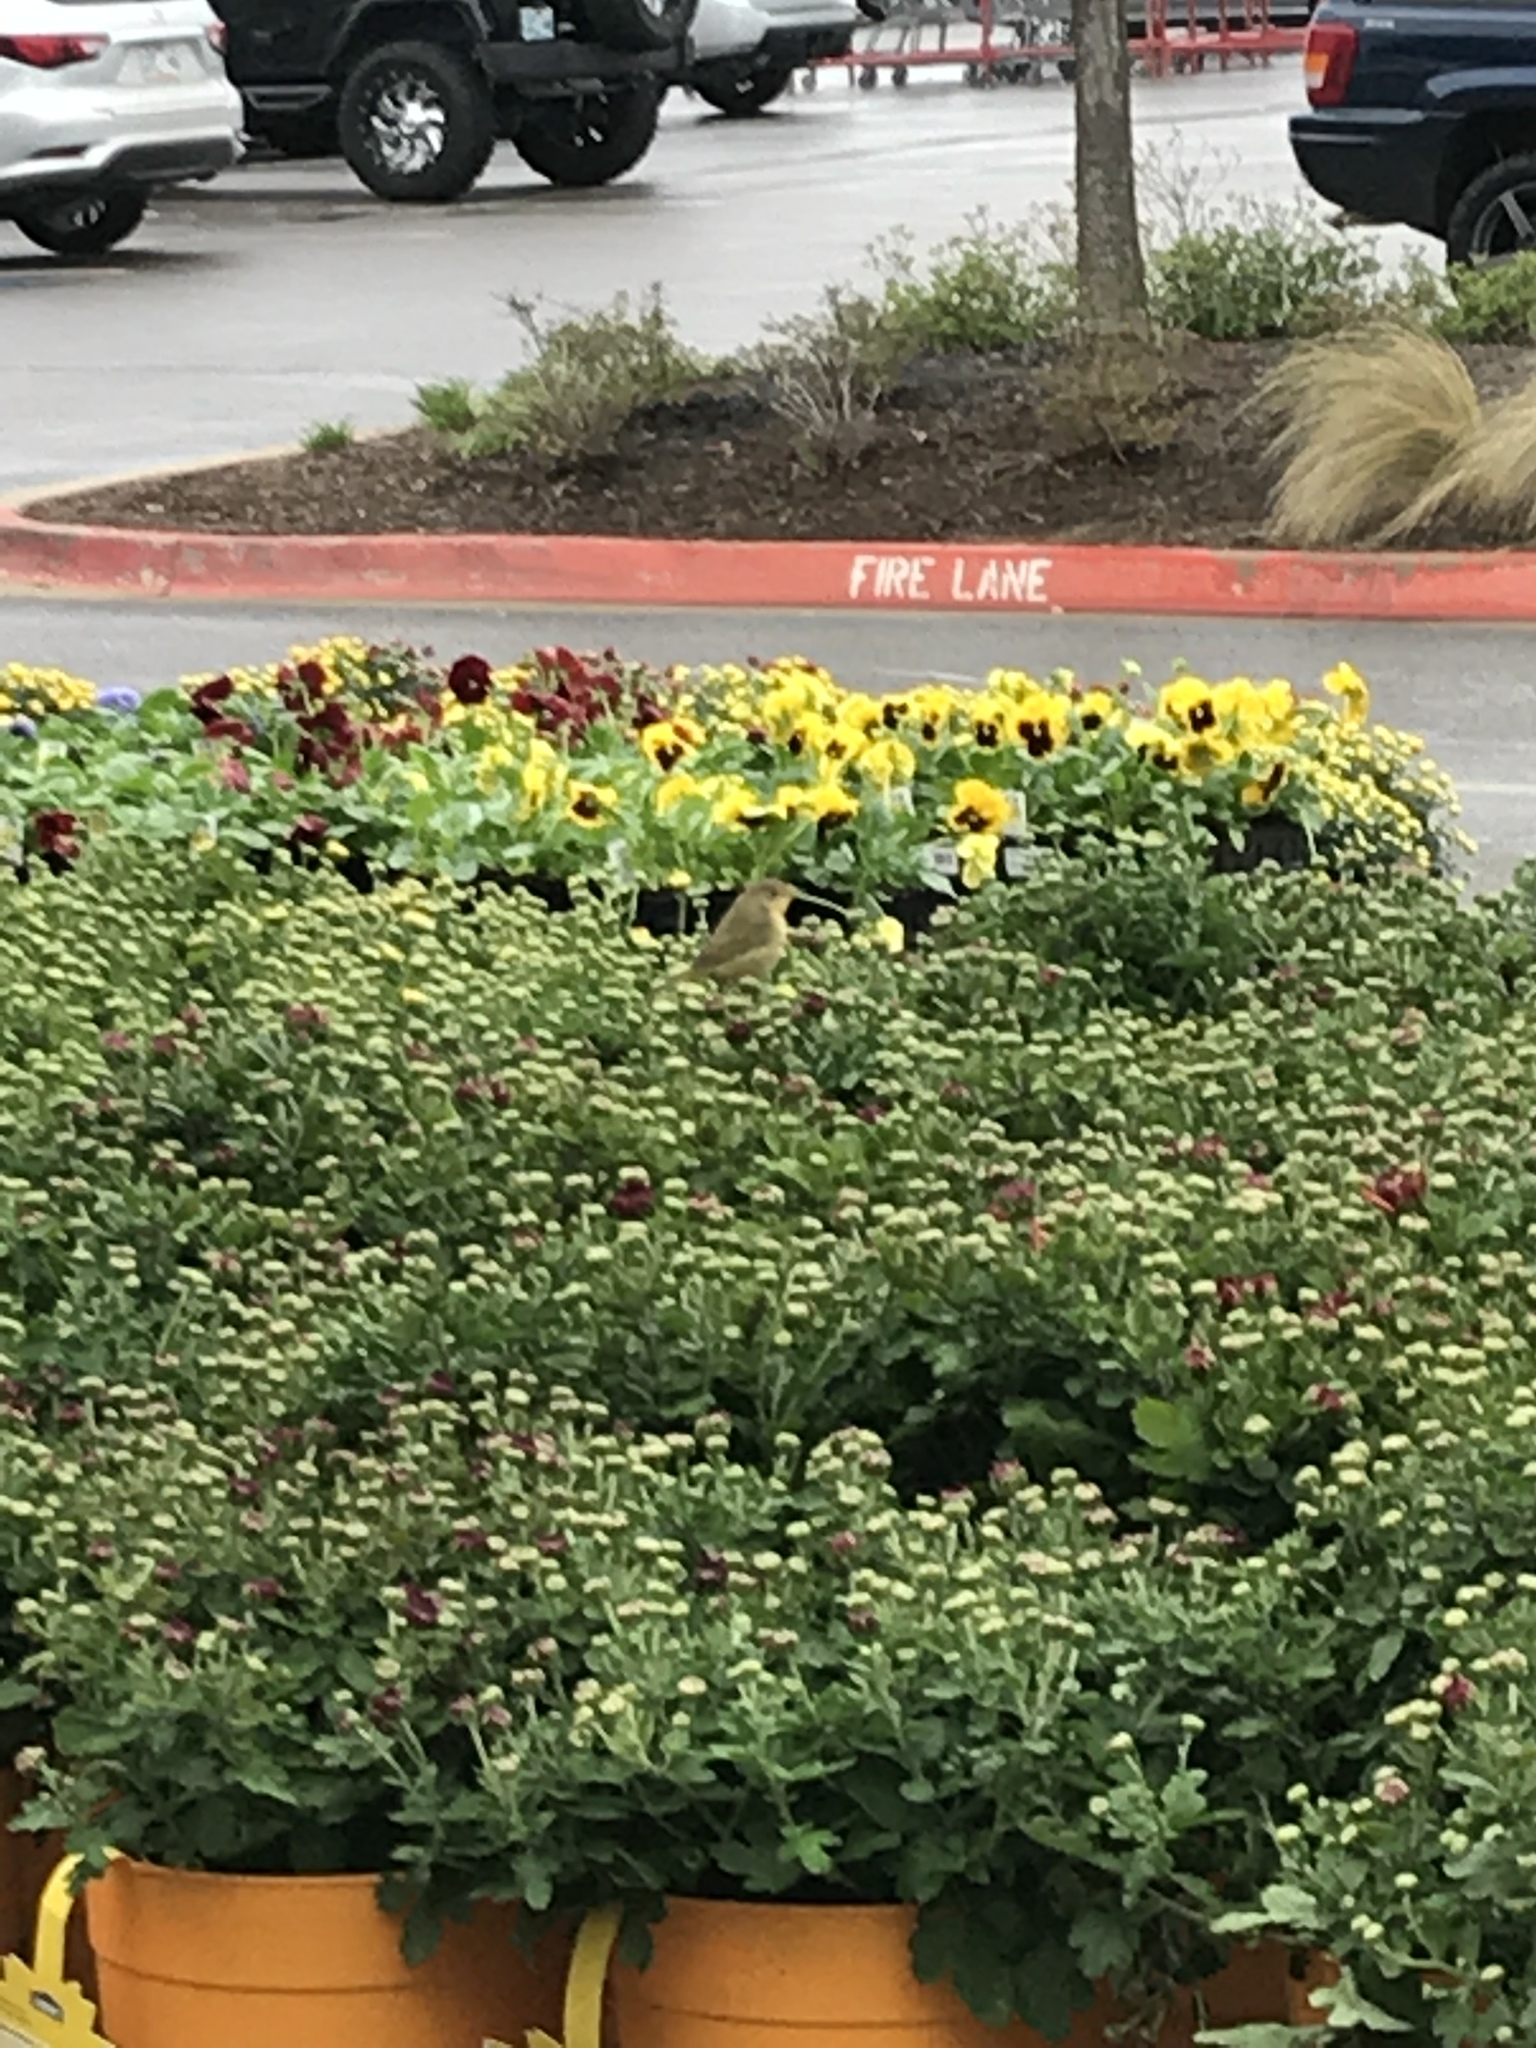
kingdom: Animalia
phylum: Chordata
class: Aves
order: Passeriformes
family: Cardinalidae
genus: Passerina
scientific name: Passerina ciris
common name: Painted bunting
